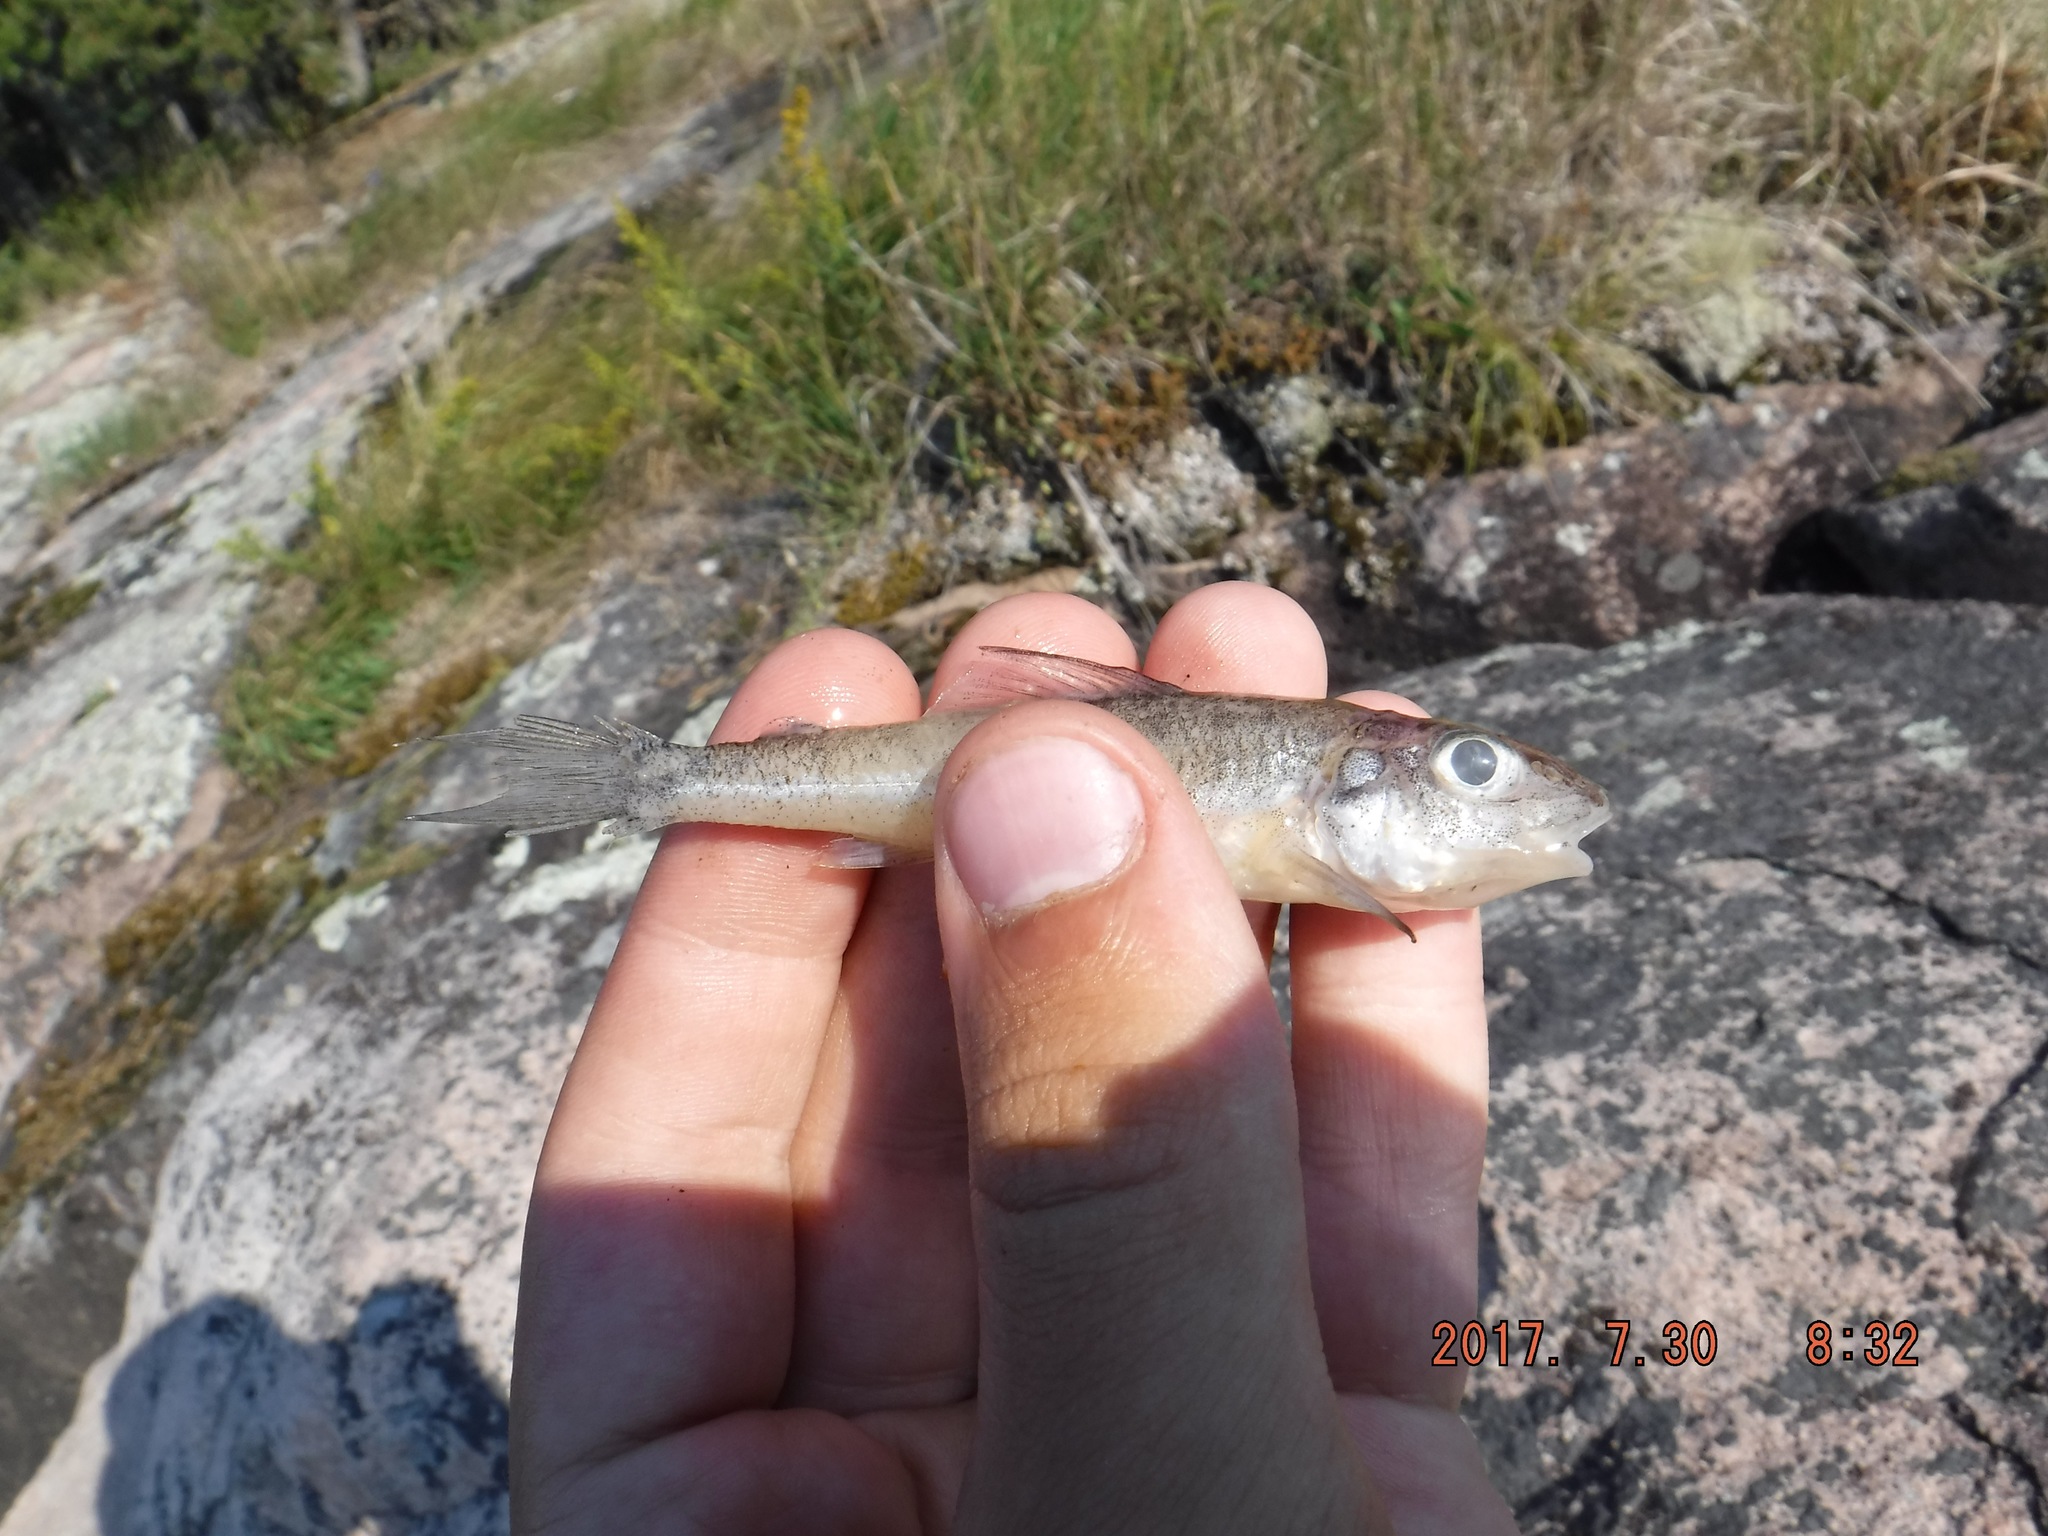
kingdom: Animalia
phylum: Chordata
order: Percopsiformes
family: Percopsidae
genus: Percopsis
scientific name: Percopsis omiscomaycus
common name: Trout-perch
